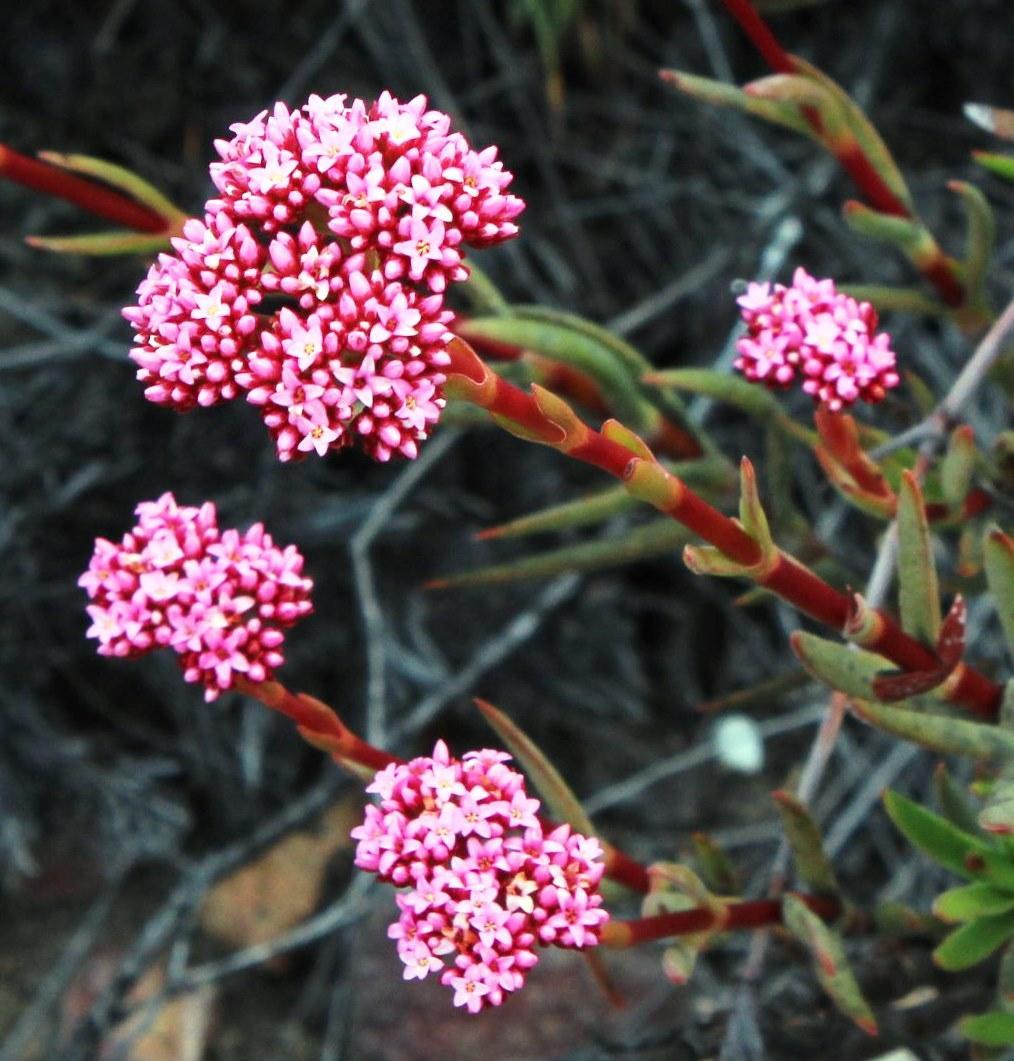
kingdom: Plantae
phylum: Tracheophyta
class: Magnoliopsida
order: Saxifragales
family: Crassulaceae
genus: Crassula
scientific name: Crassula multiflora
